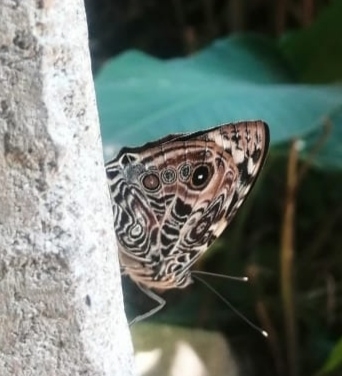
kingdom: Animalia
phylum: Arthropoda
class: Insecta
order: Lepidoptera
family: Nymphalidae
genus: Smyrna
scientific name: Smyrna blomfildia
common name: Blomfild's beauty
